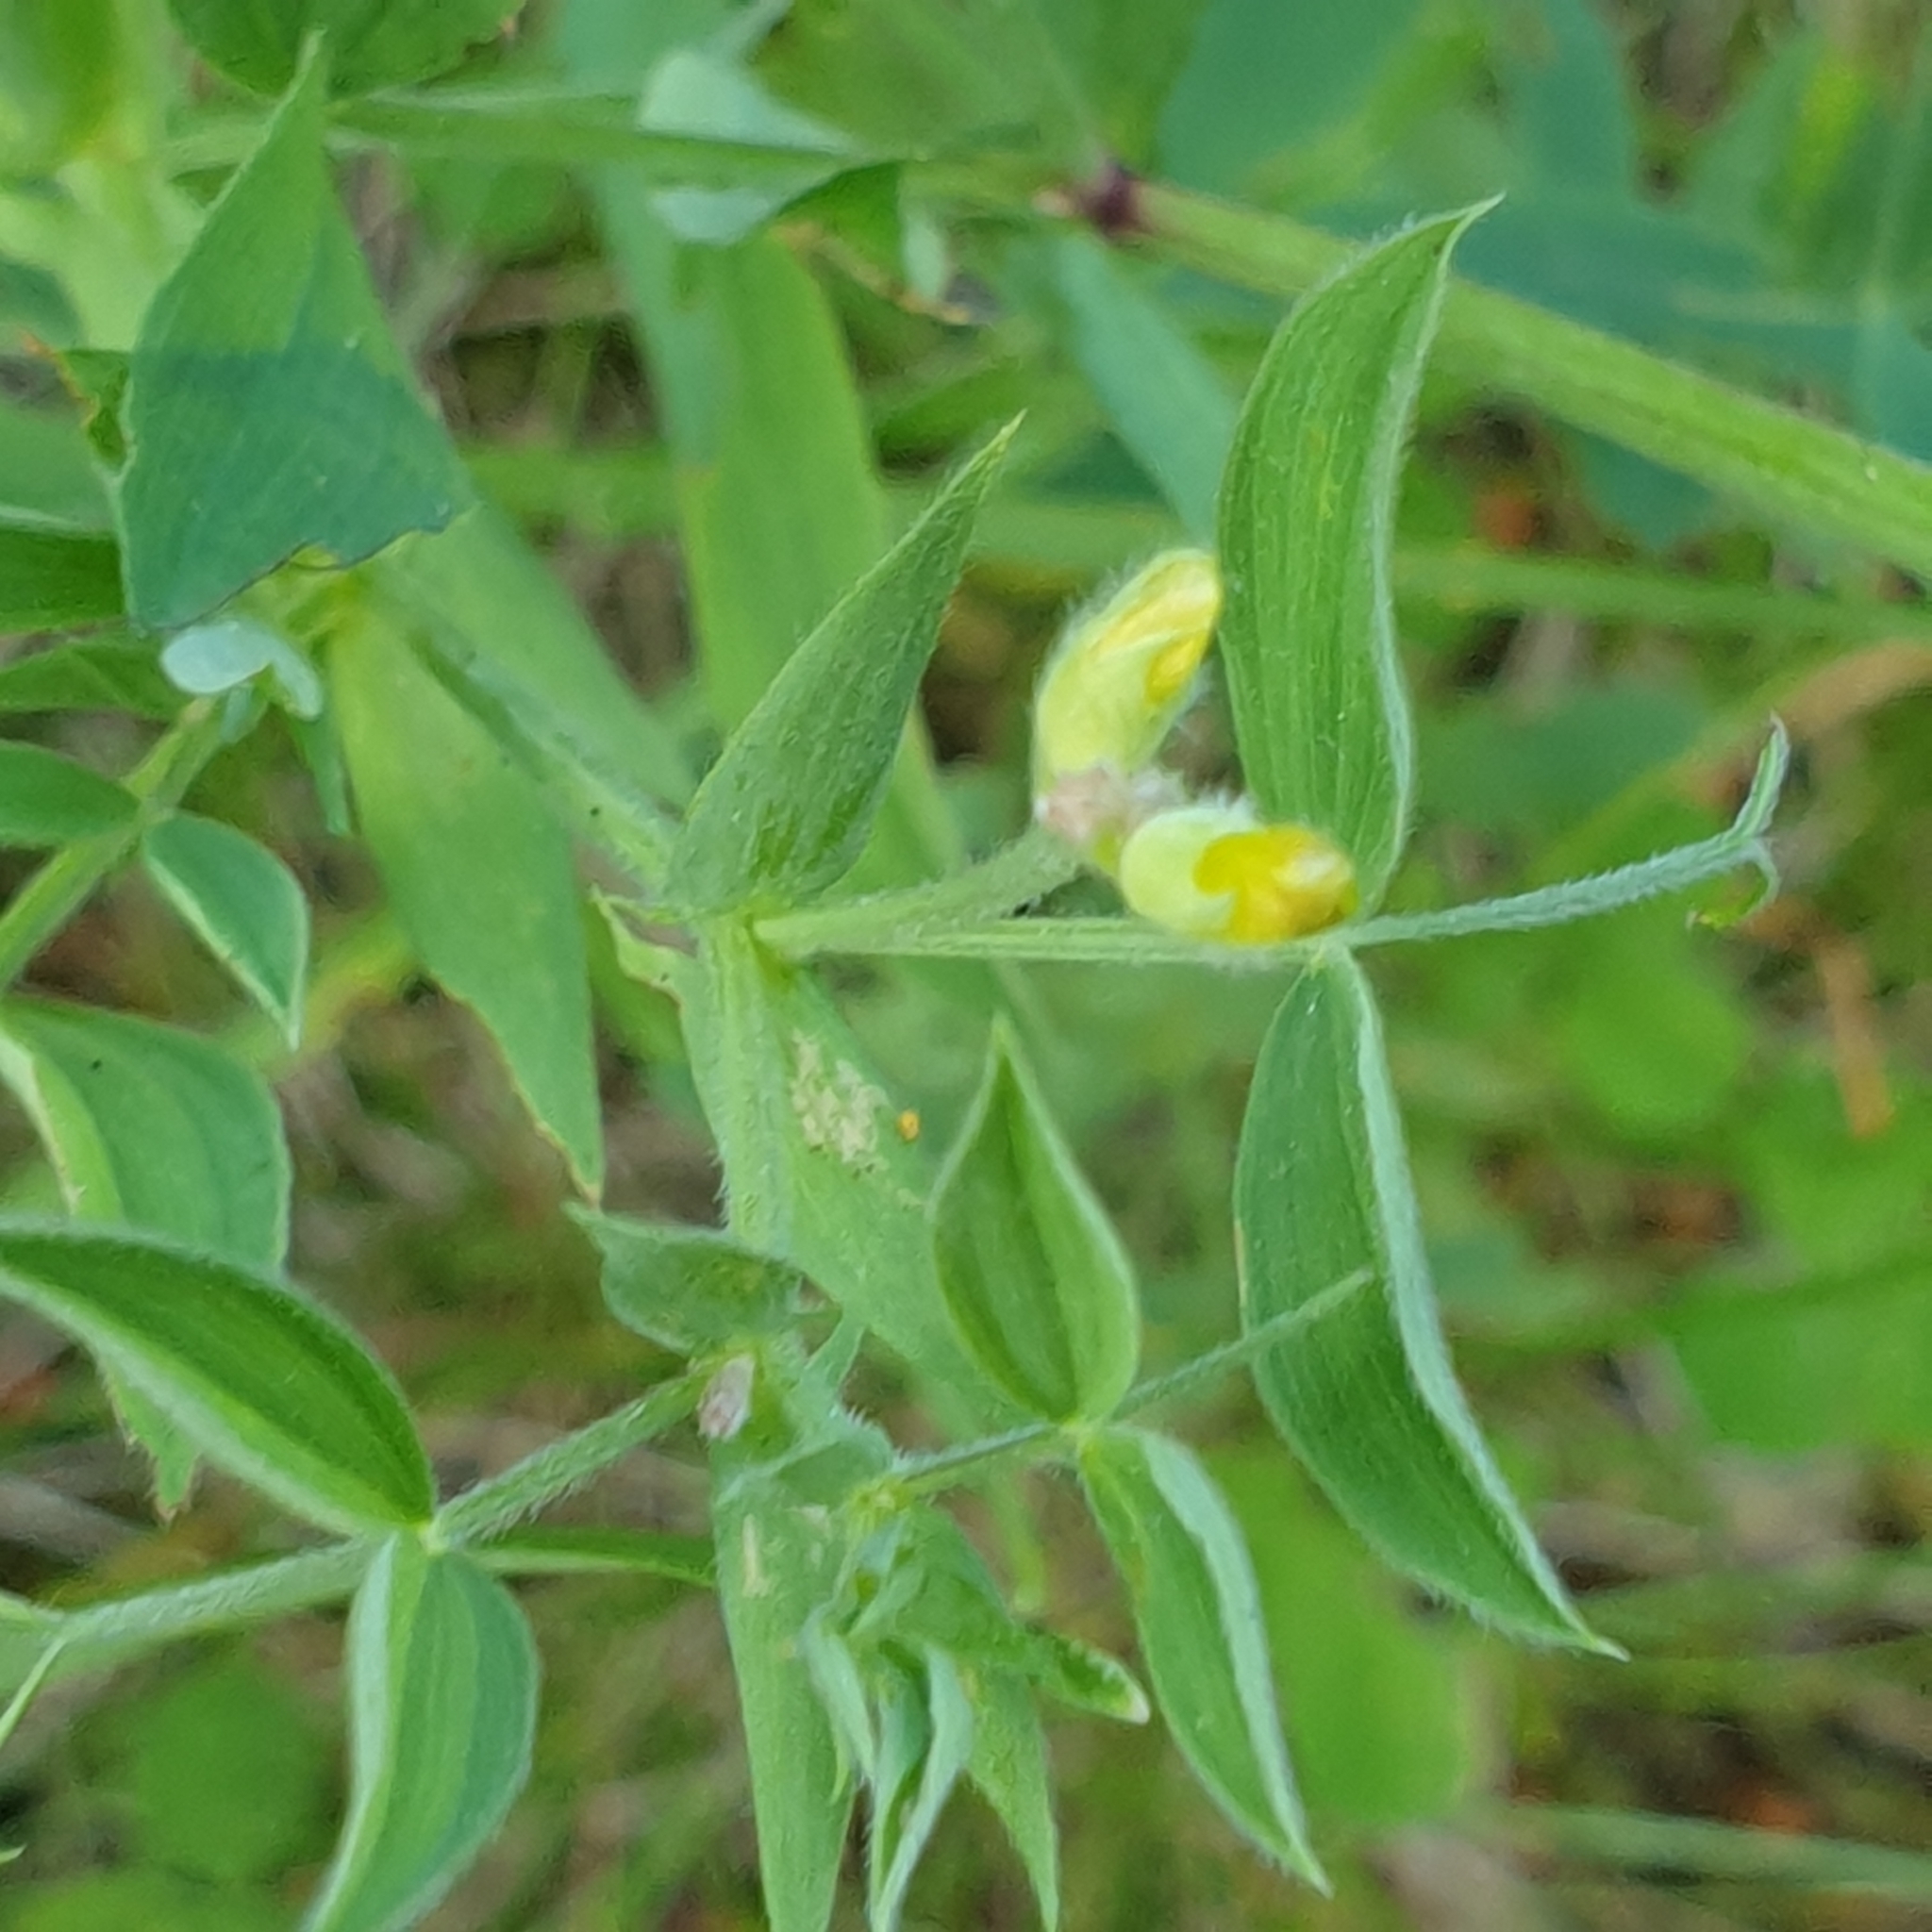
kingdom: Plantae
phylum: Tracheophyta
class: Magnoliopsida
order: Fabales
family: Fabaceae
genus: Lathyrus
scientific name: Lathyrus pratensis
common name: Meadow vetchling
